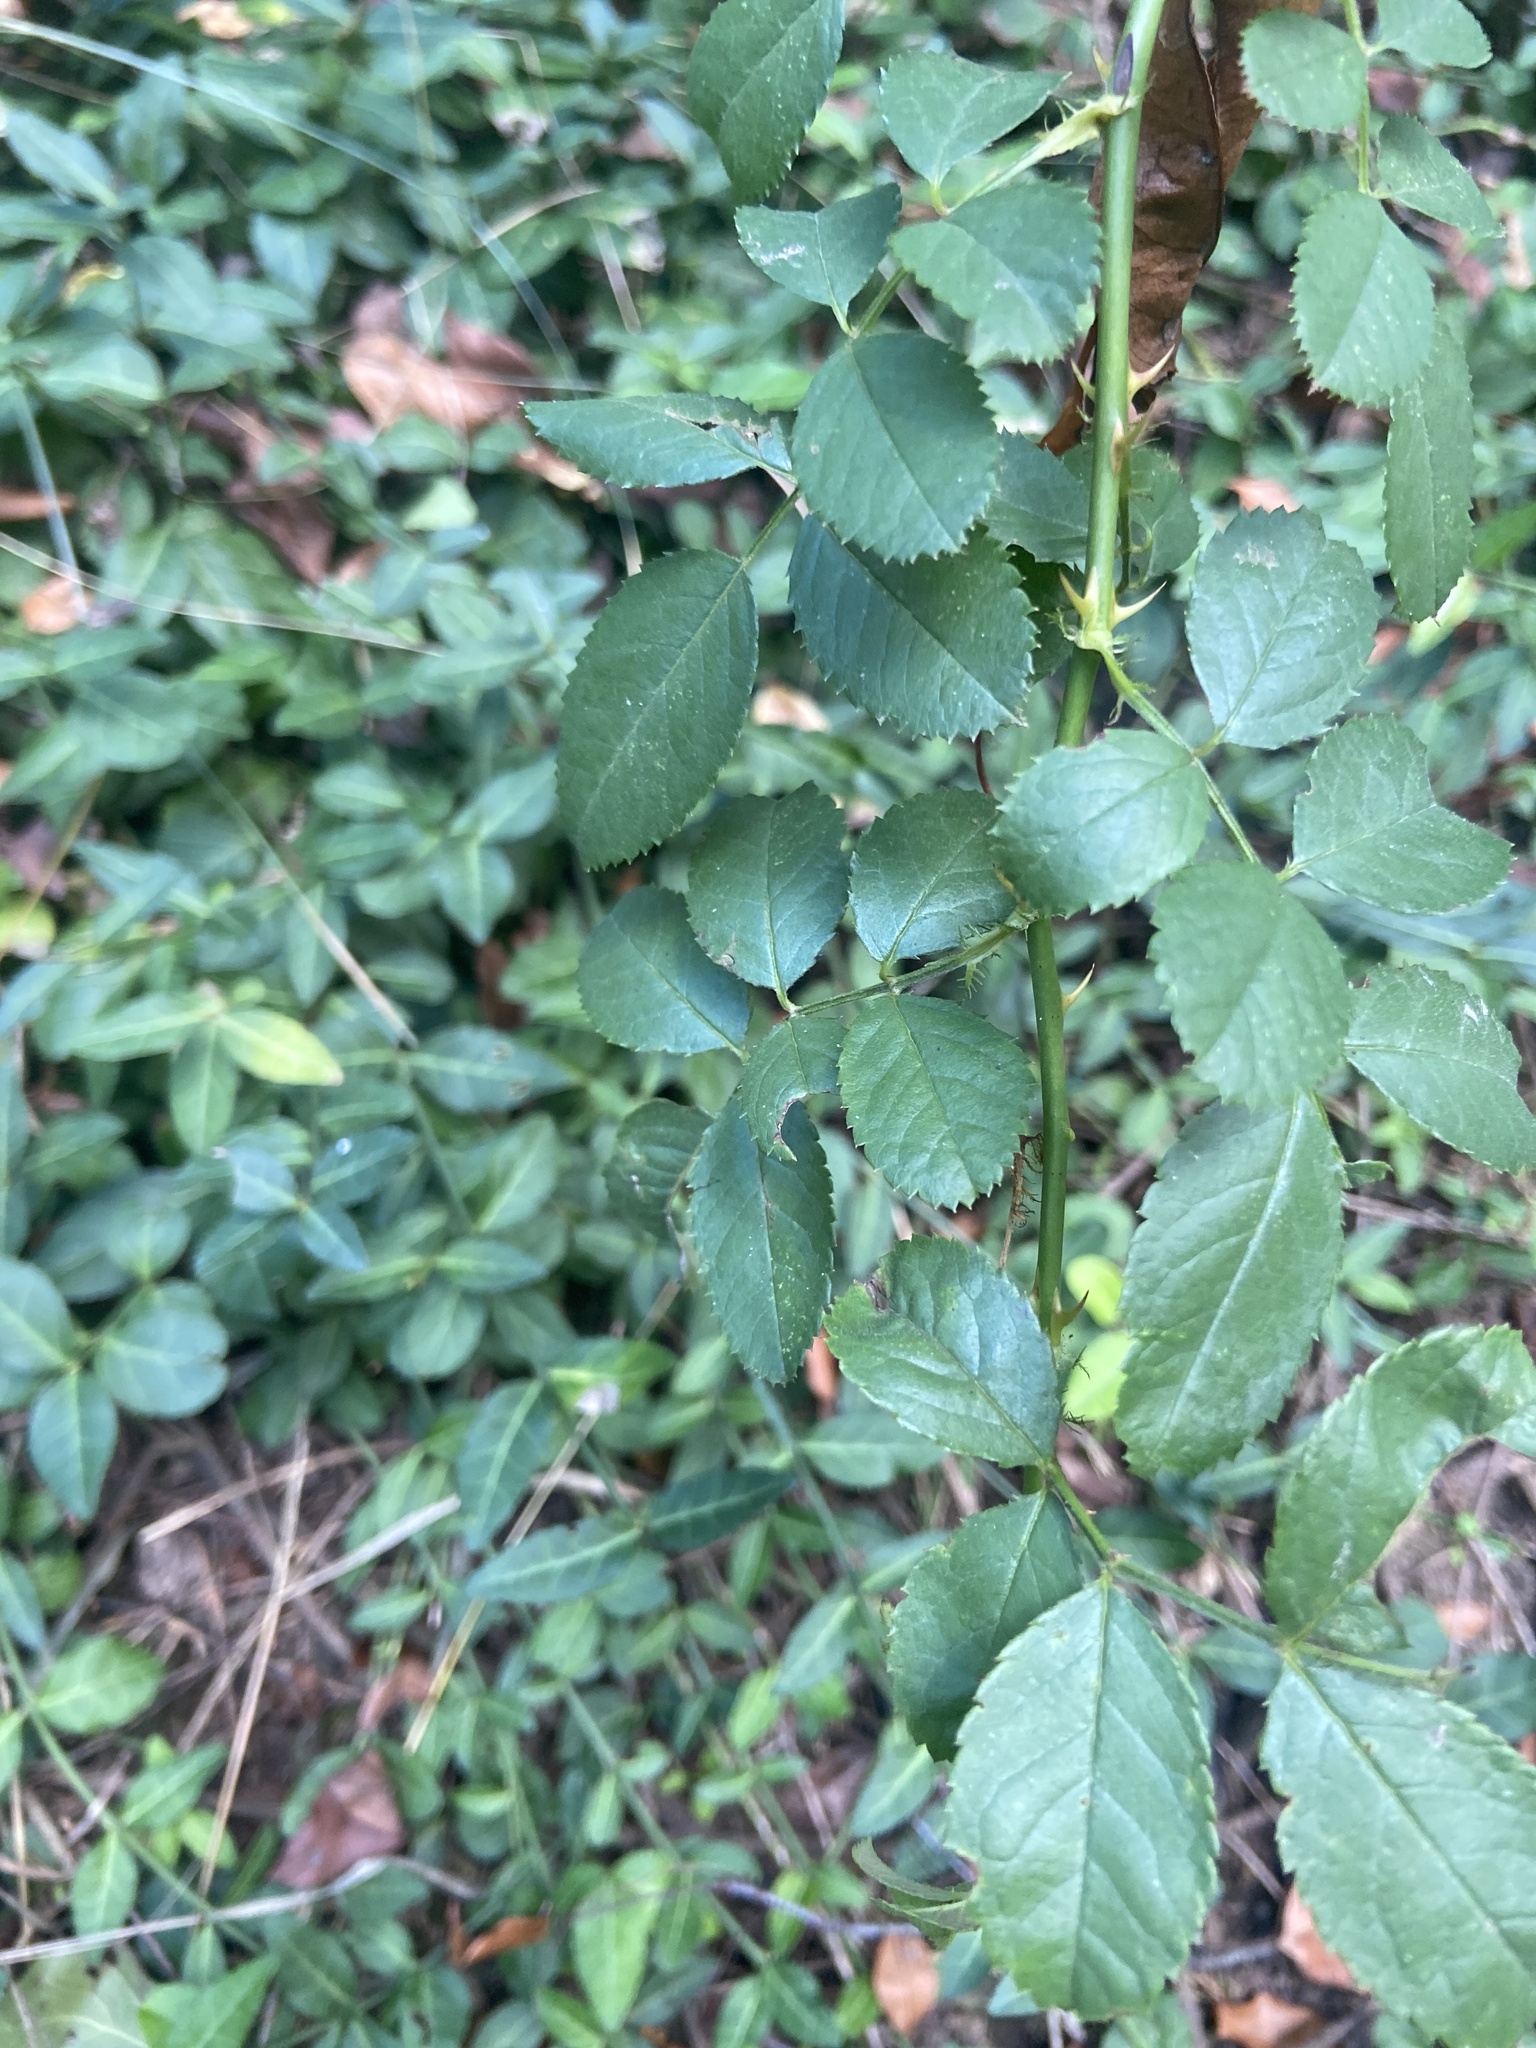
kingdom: Plantae
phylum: Tracheophyta
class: Magnoliopsida
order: Rosales
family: Rosaceae
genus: Rosa
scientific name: Rosa multiflora
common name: Multiflora rose
